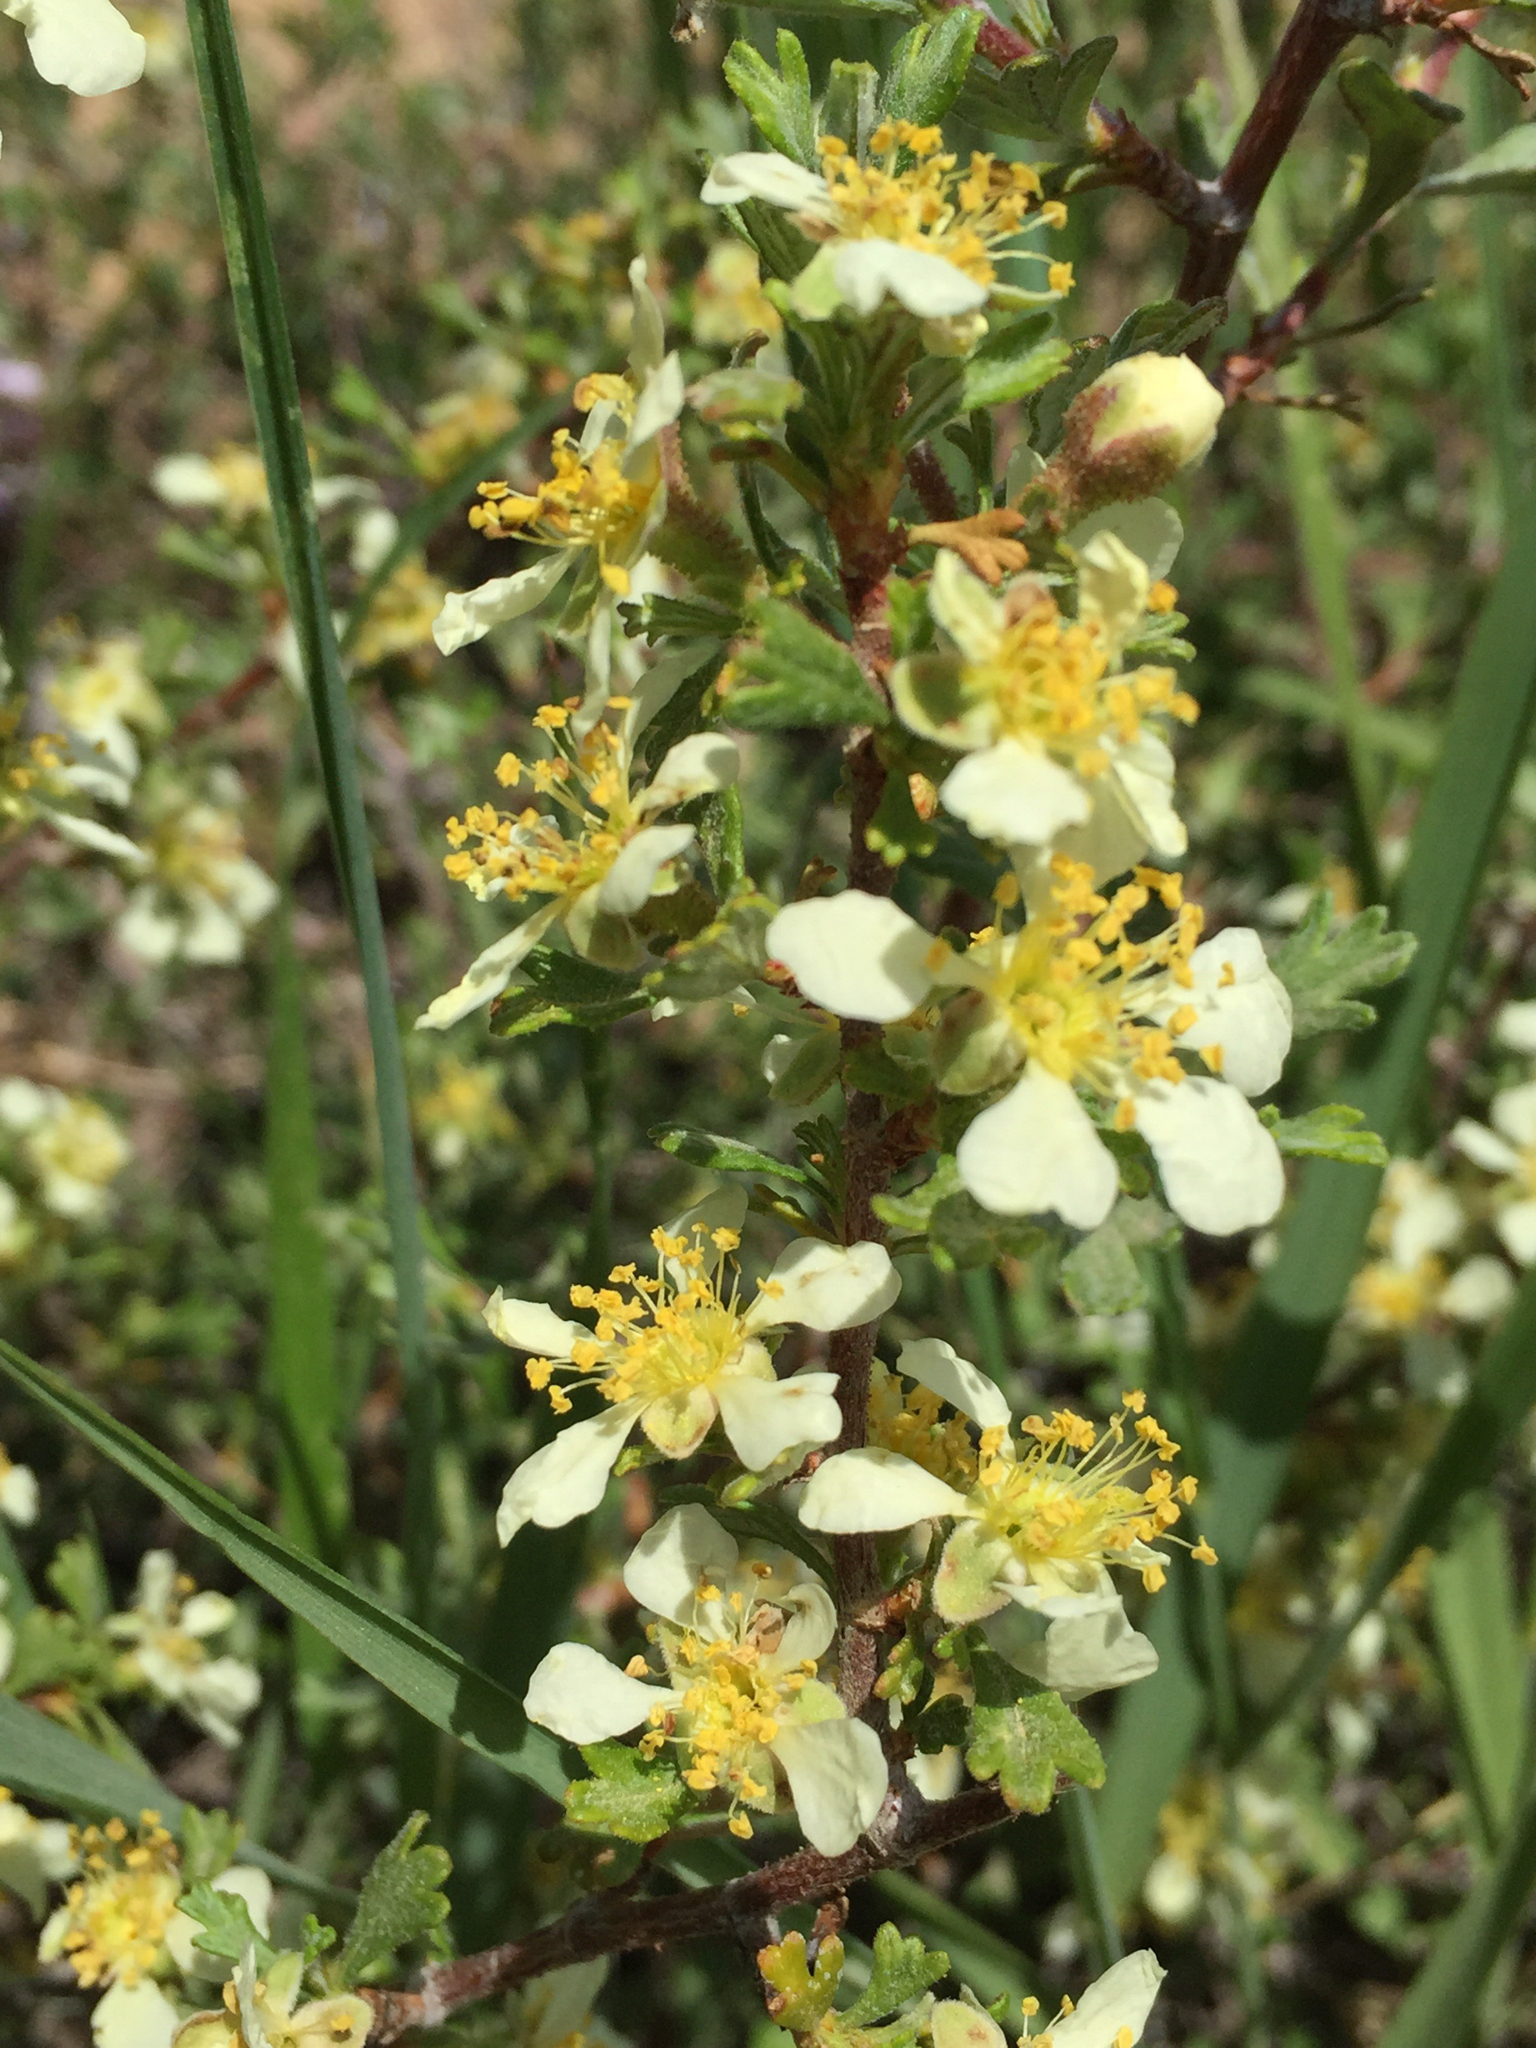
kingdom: Plantae
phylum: Tracheophyta
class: Magnoliopsida
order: Rosales
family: Rosaceae
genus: Purshia
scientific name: Purshia tridentata
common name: Antelope bitterbrush
